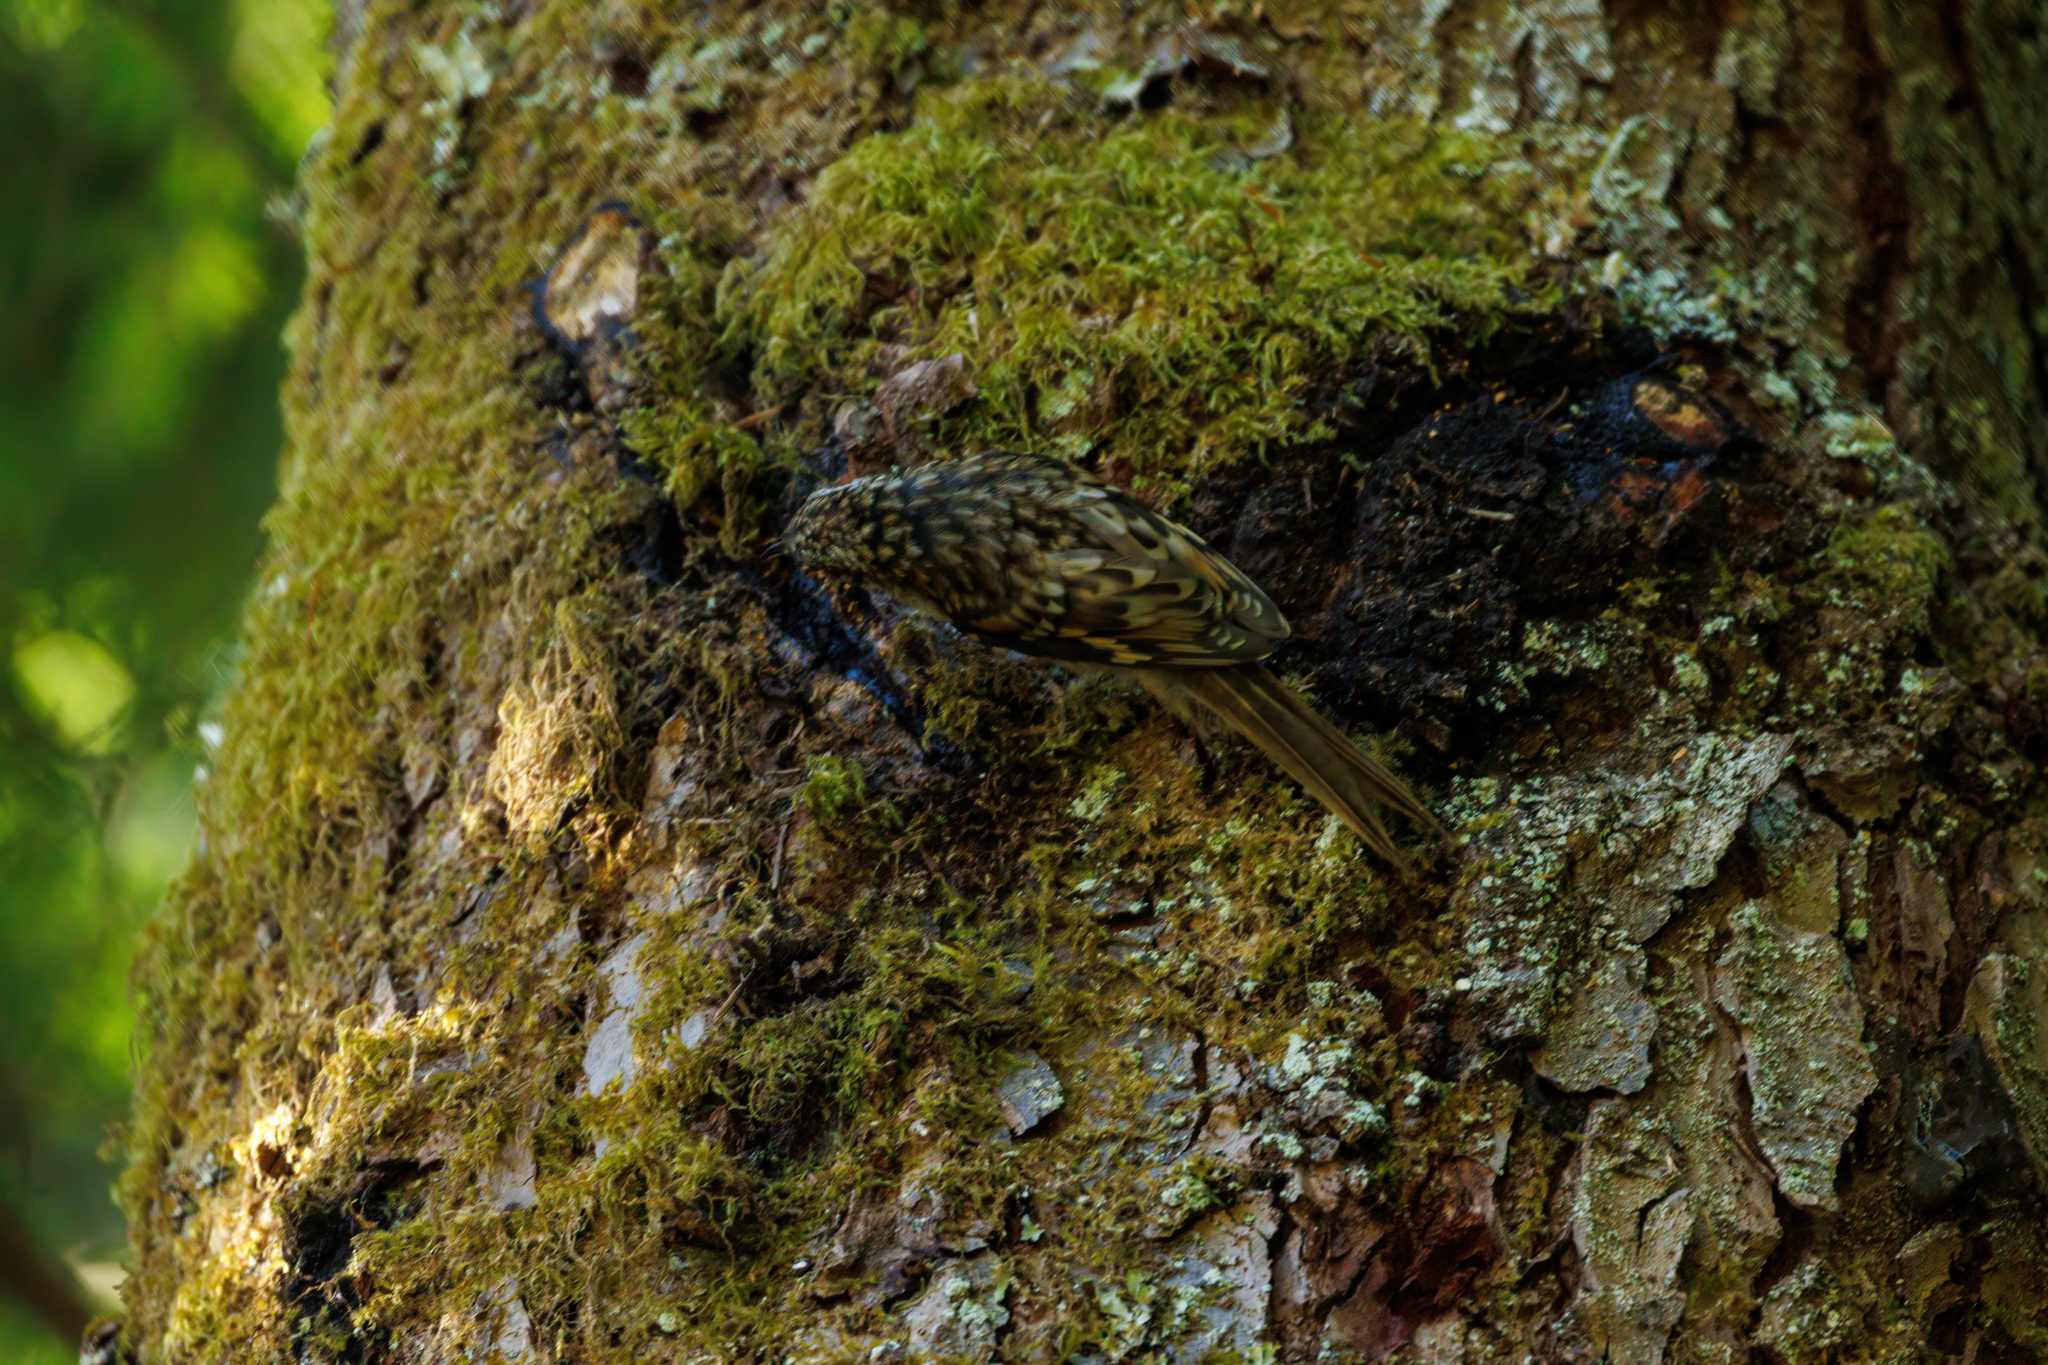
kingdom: Animalia
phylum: Chordata
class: Aves
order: Passeriformes
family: Certhiidae
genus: Certhia
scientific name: Certhia americana
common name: Brown creeper
